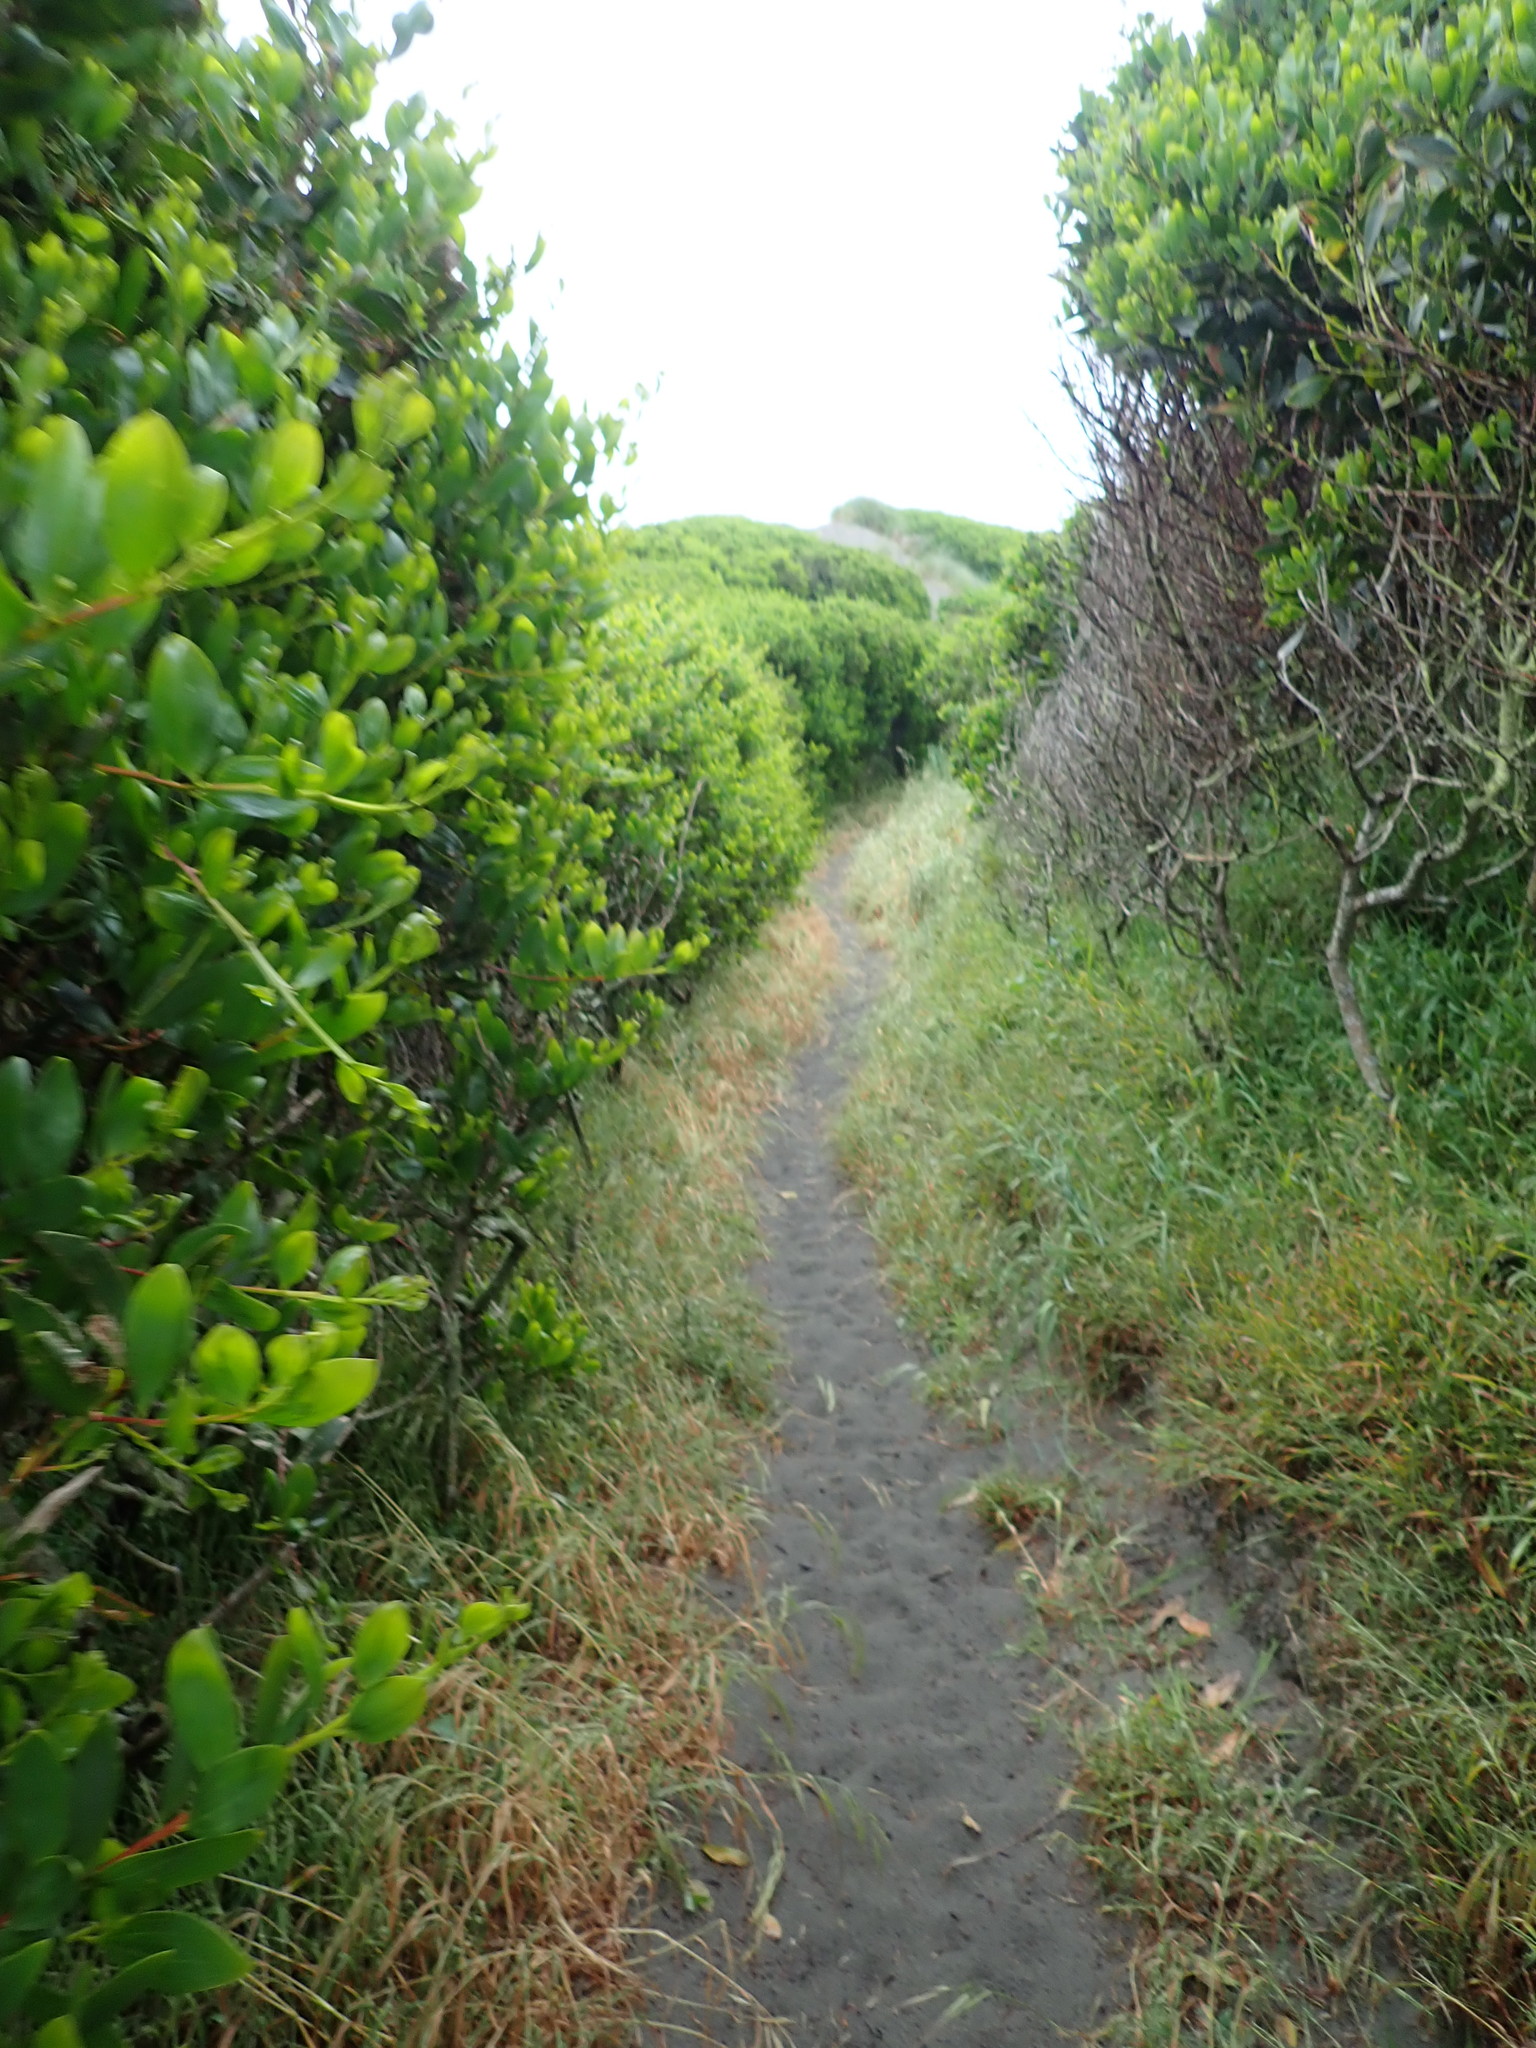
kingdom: Plantae
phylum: Tracheophyta
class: Magnoliopsida
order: Fabales
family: Fabaceae
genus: Acacia
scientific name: Acacia longifolia
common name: Sydney golden wattle
